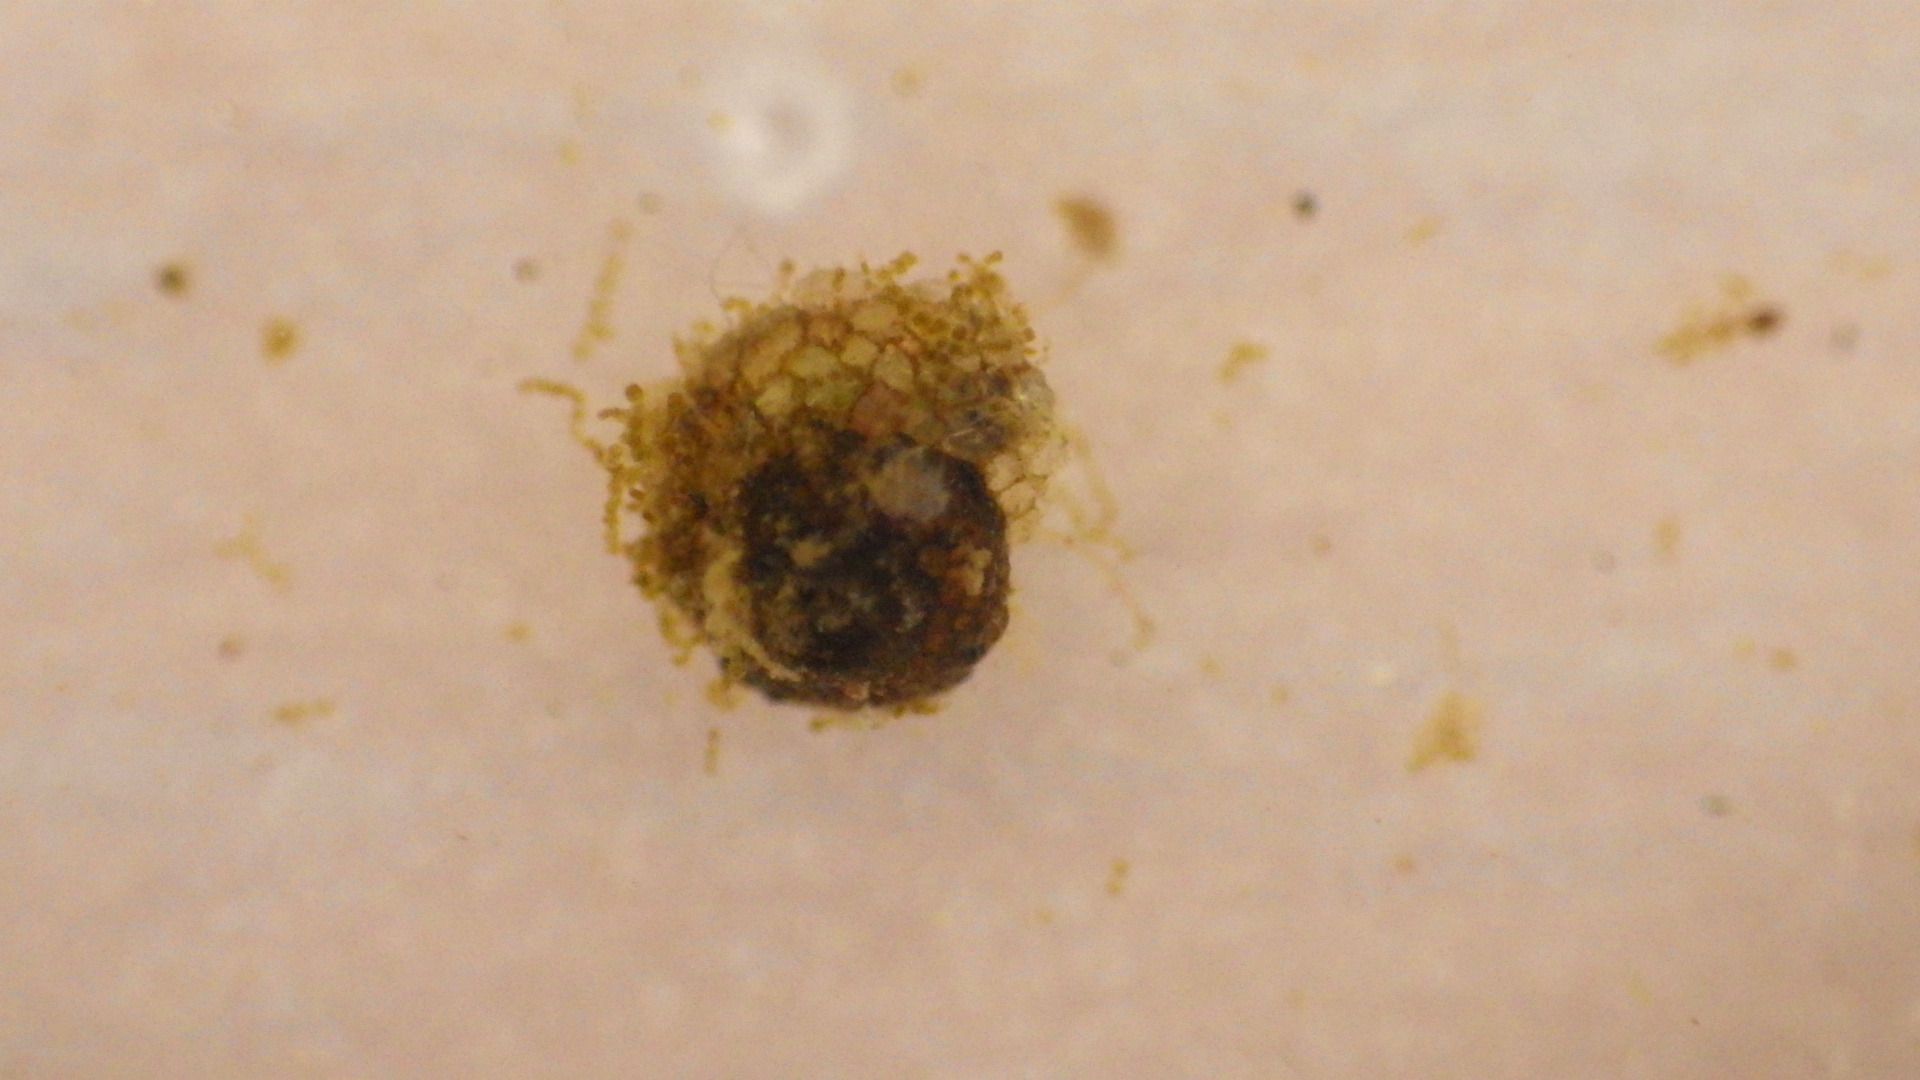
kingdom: Animalia
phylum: Arthropoda
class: Insecta
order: Trichoptera
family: Helicopsychidae
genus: Helicopsyche
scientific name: Helicopsyche borealis
